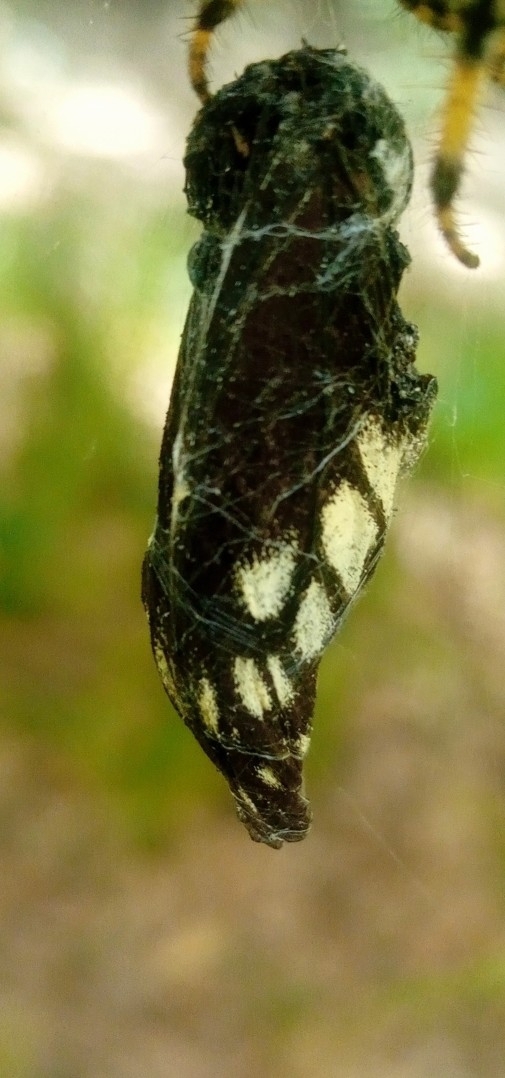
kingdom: Animalia
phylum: Arthropoda
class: Insecta
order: Lepidoptera
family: Pieridae
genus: Archonias
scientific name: Archonias nimbice
